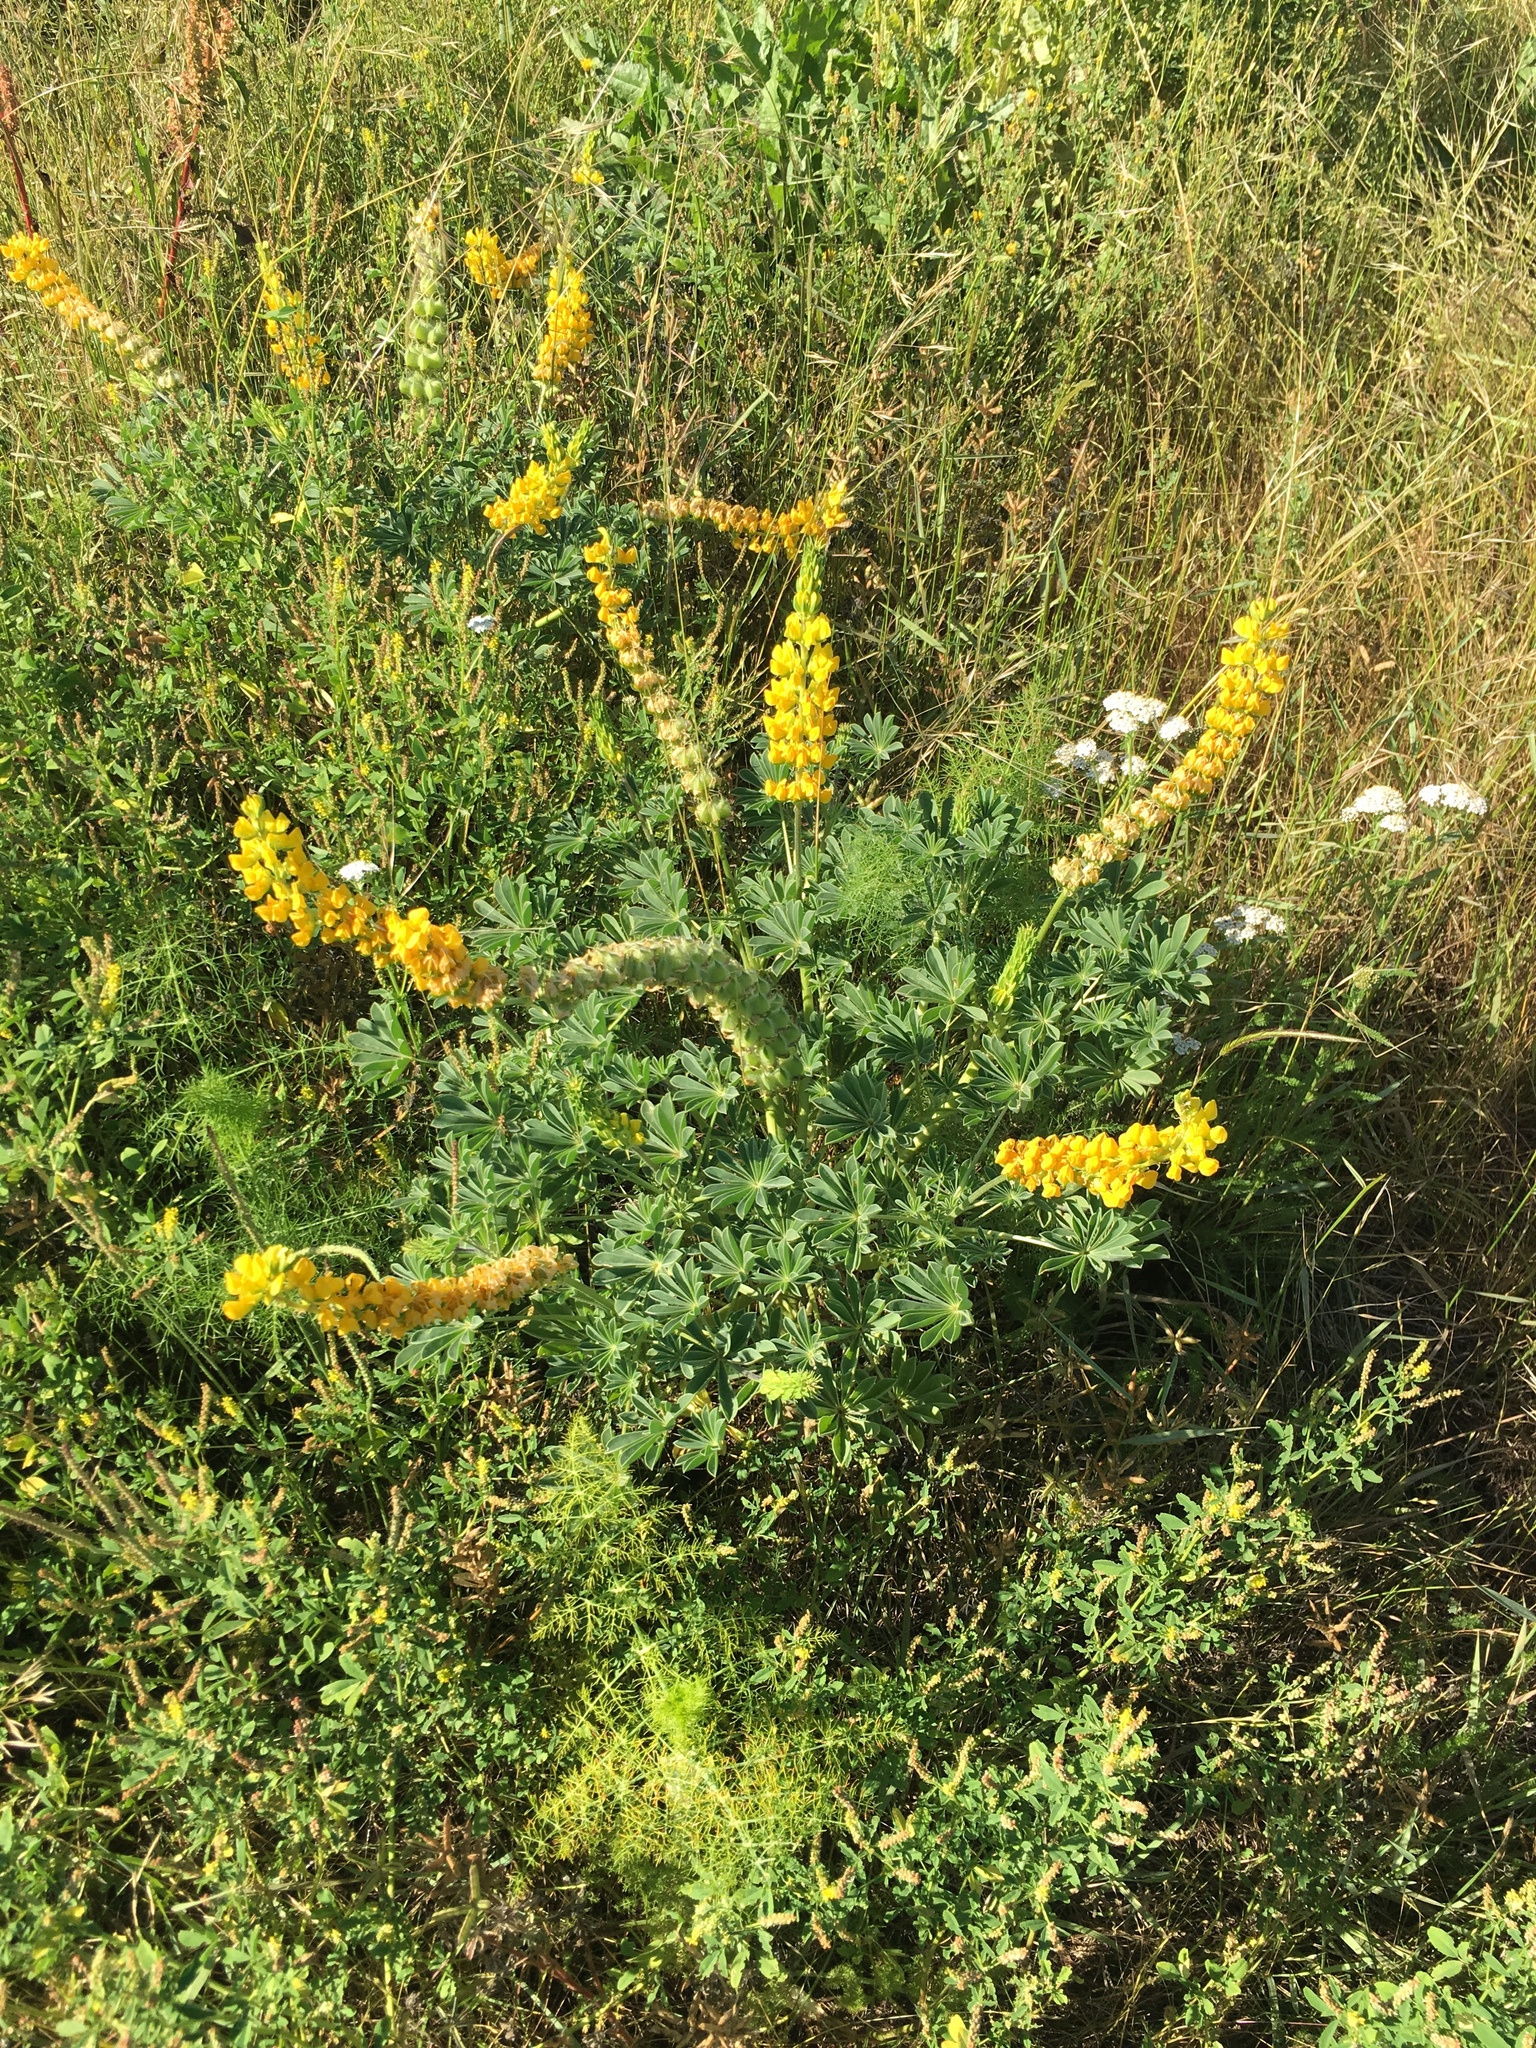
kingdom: Plantae
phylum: Tracheophyta
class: Magnoliopsida
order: Fabales
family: Fabaceae
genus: Lupinus
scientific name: Lupinus microcarpus
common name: Chick lupine
